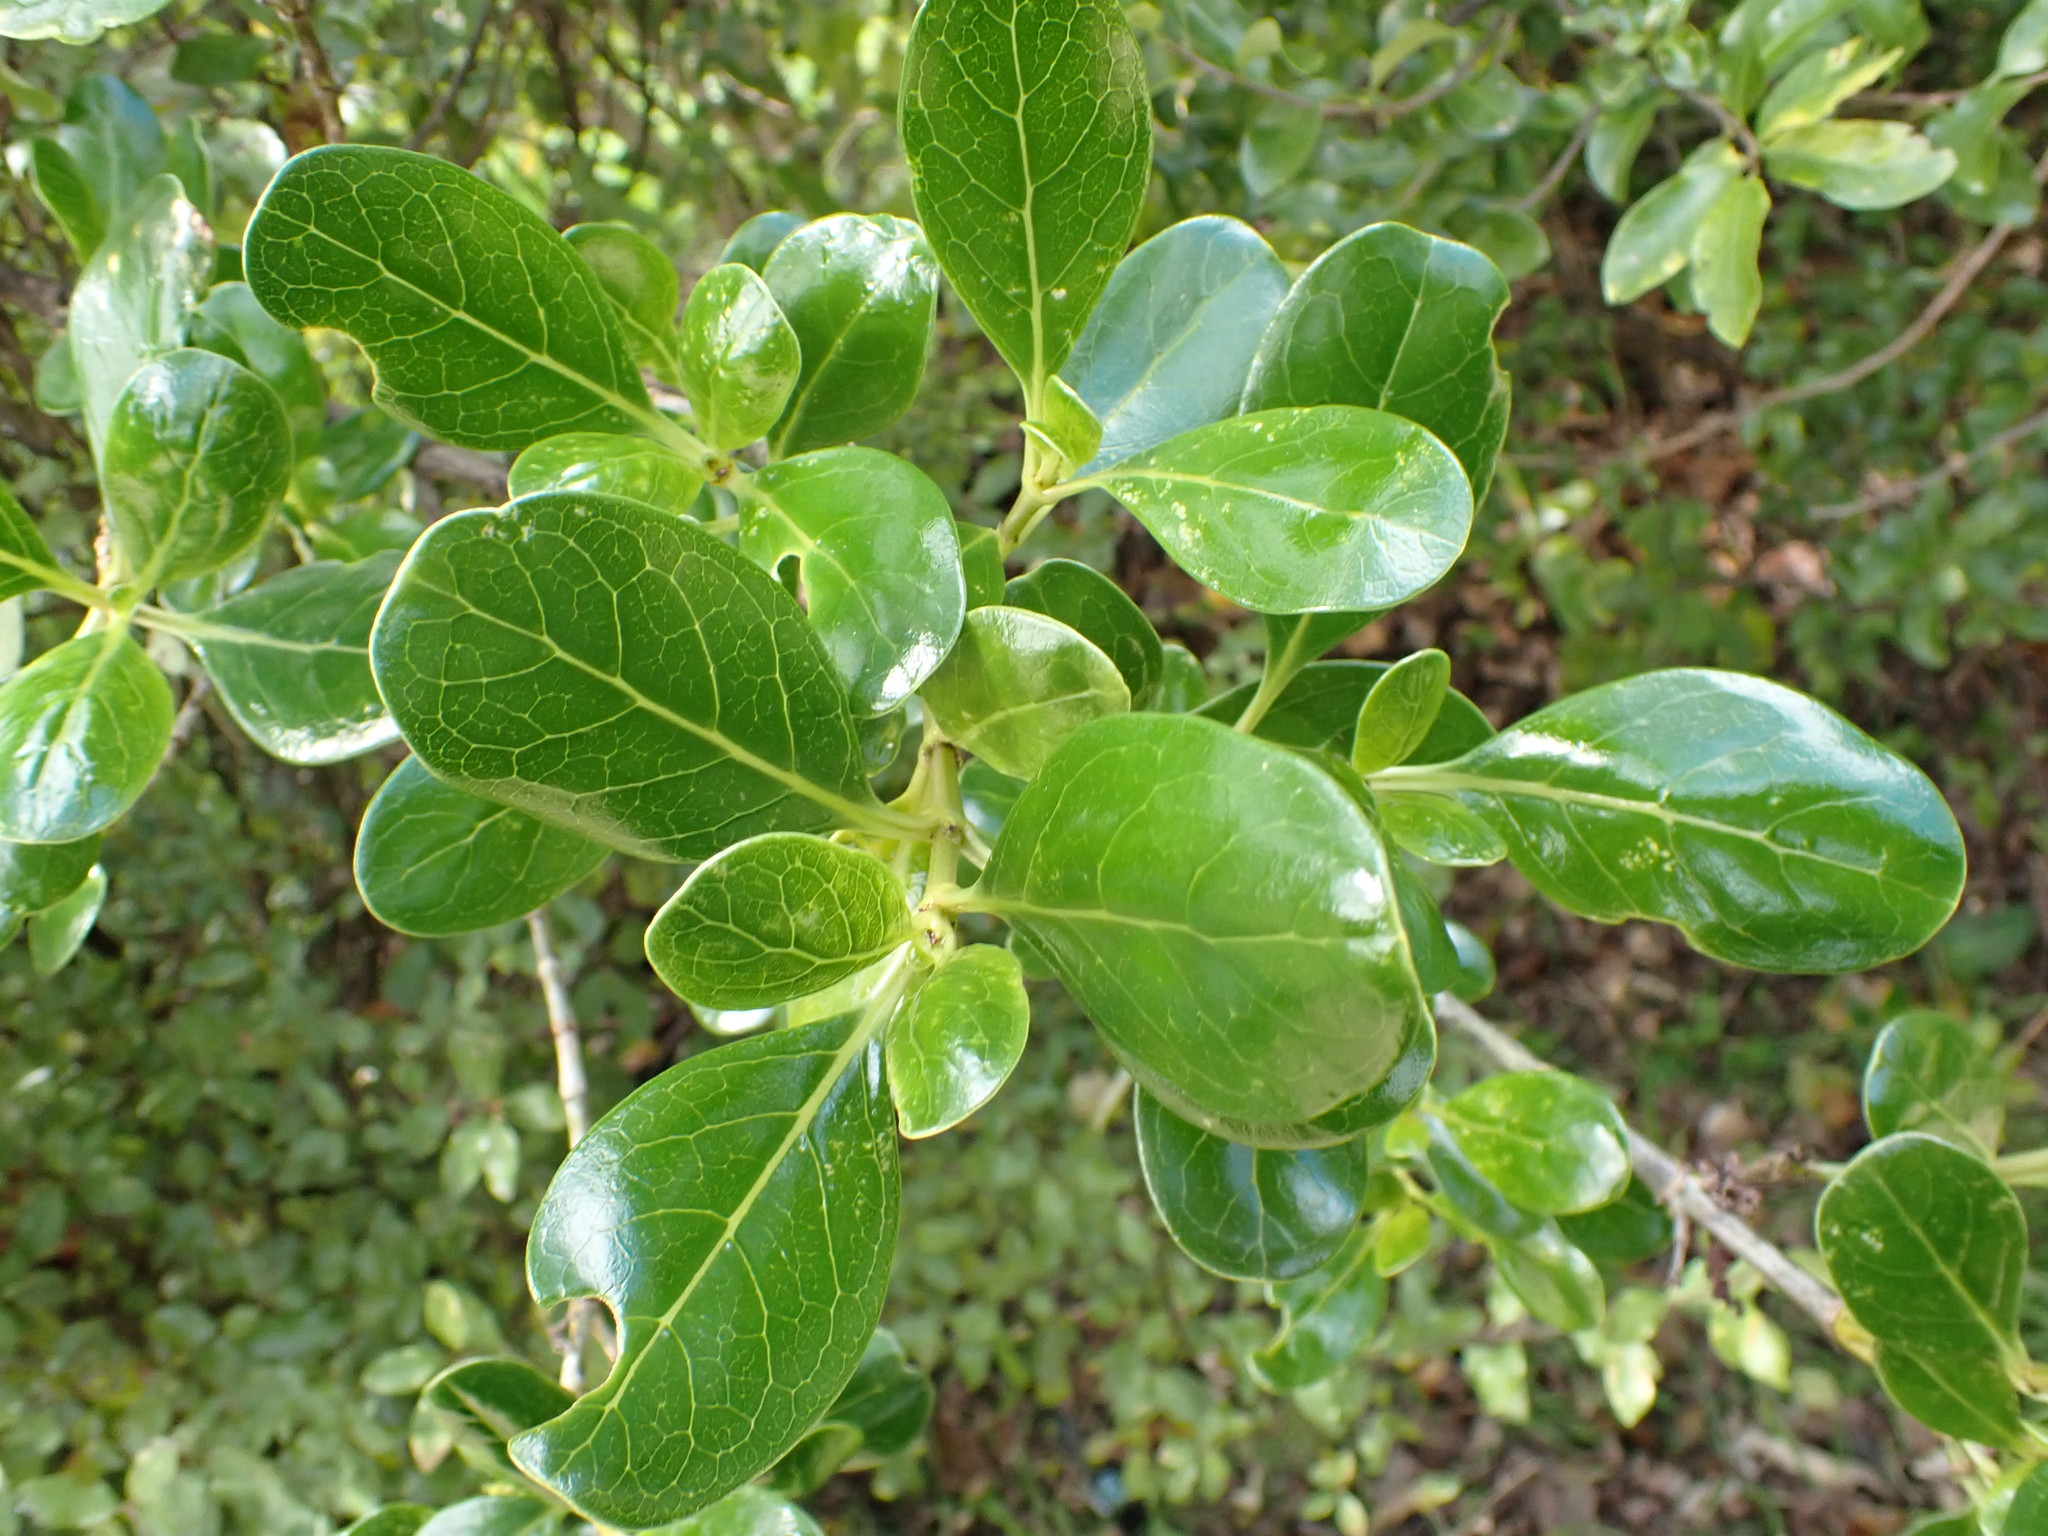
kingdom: Plantae
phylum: Tracheophyta
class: Magnoliopsida
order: Gentianales
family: Rubiaceae
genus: Coprosma
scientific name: Coprosma repens
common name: Tree bedstraw
